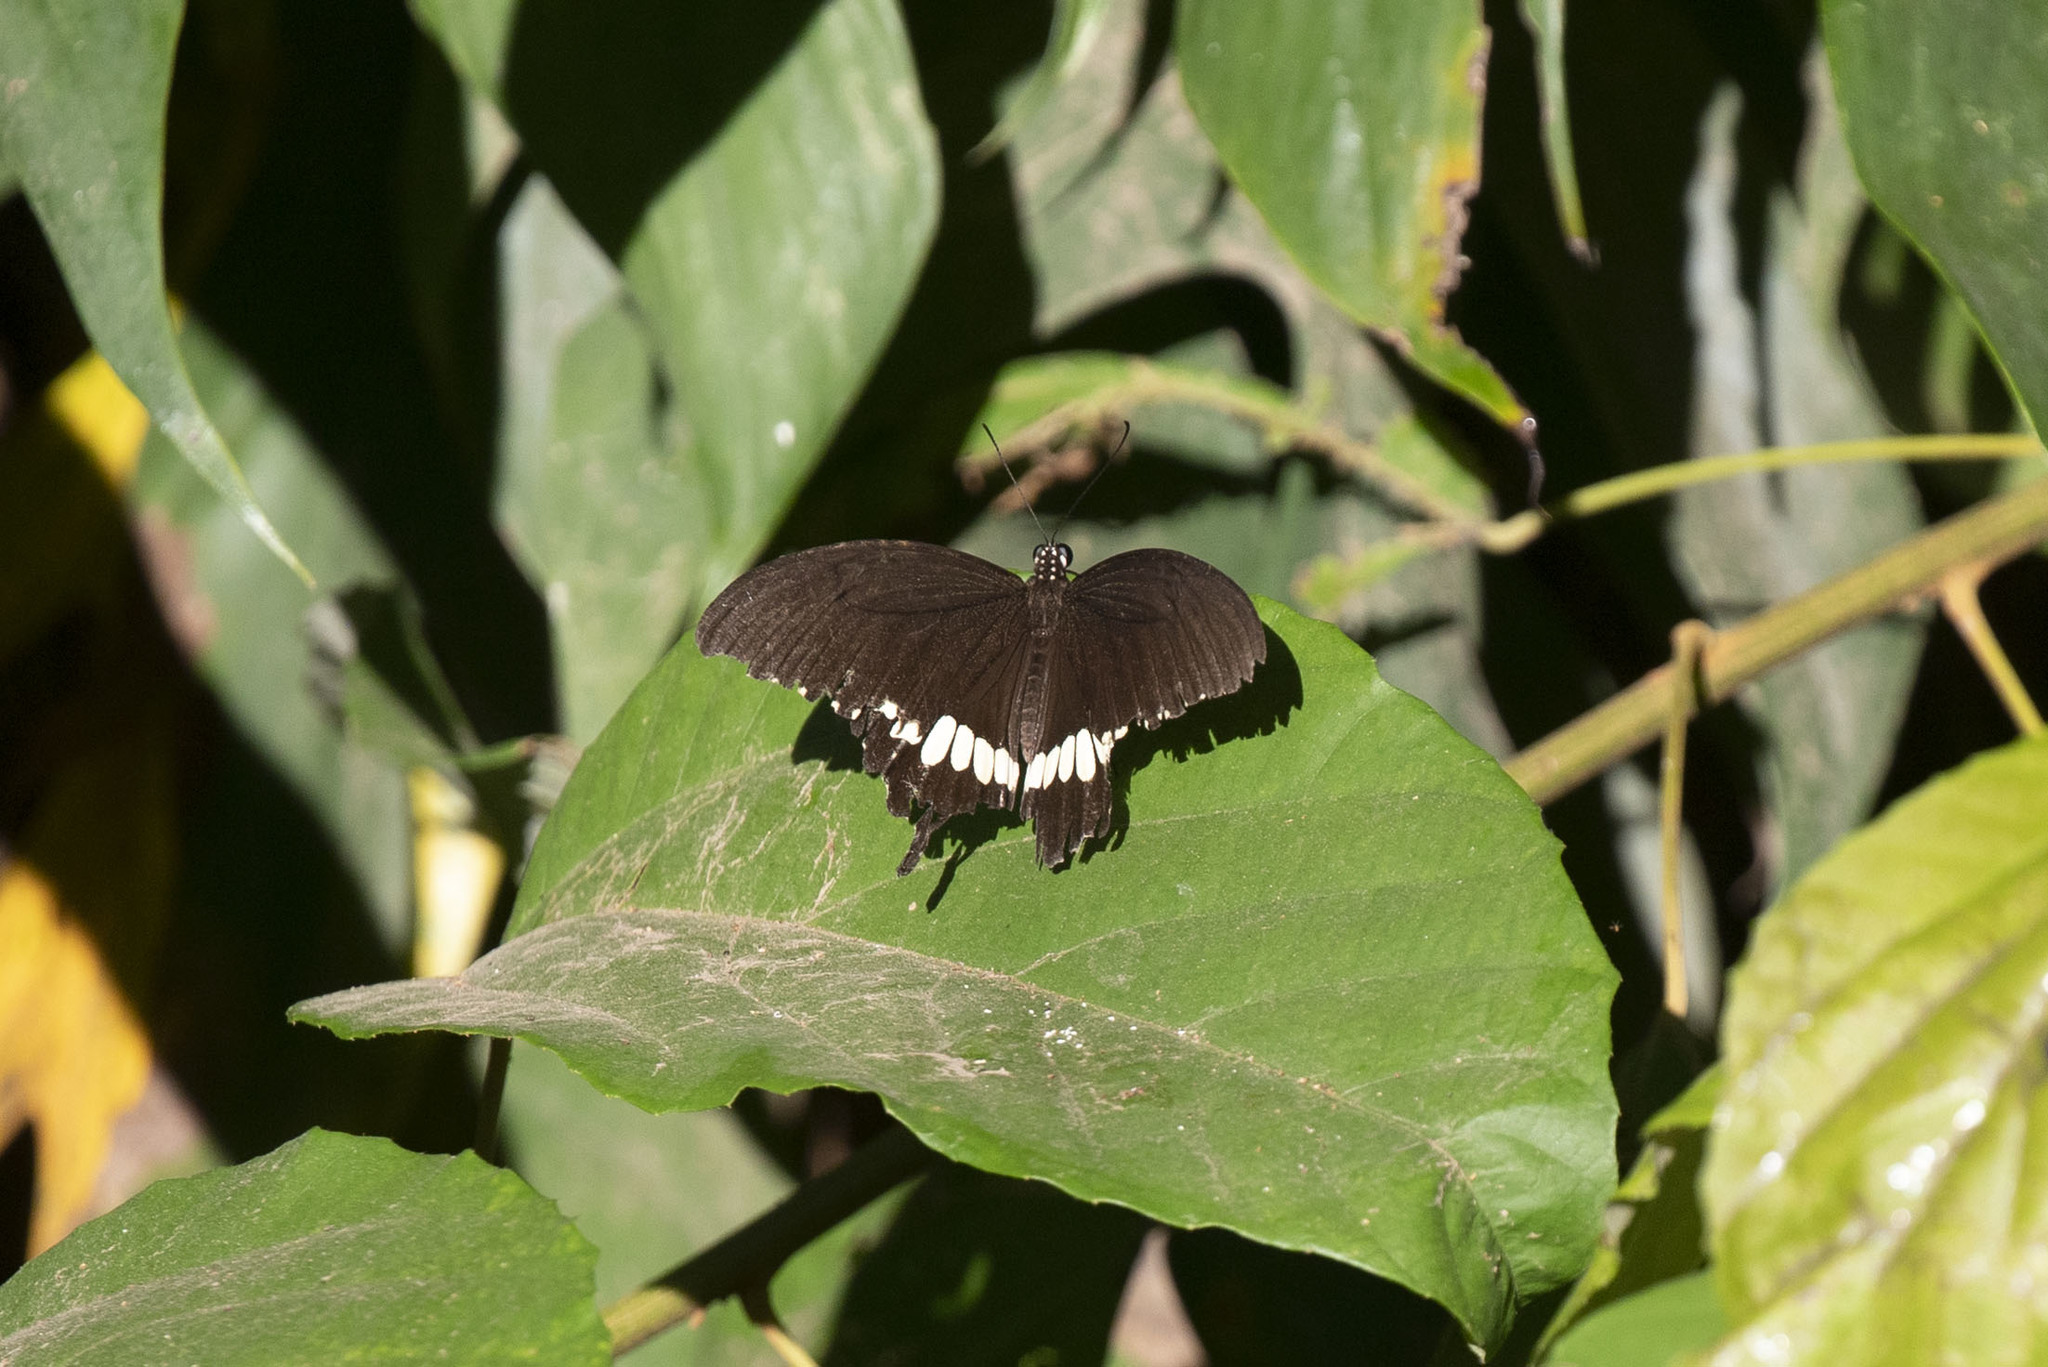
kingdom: Animalia
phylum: Arthropoda
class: Insecta
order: Lepidoptera
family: Papilionidae
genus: Papilio
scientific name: Papilio polytes
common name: Common mormon
